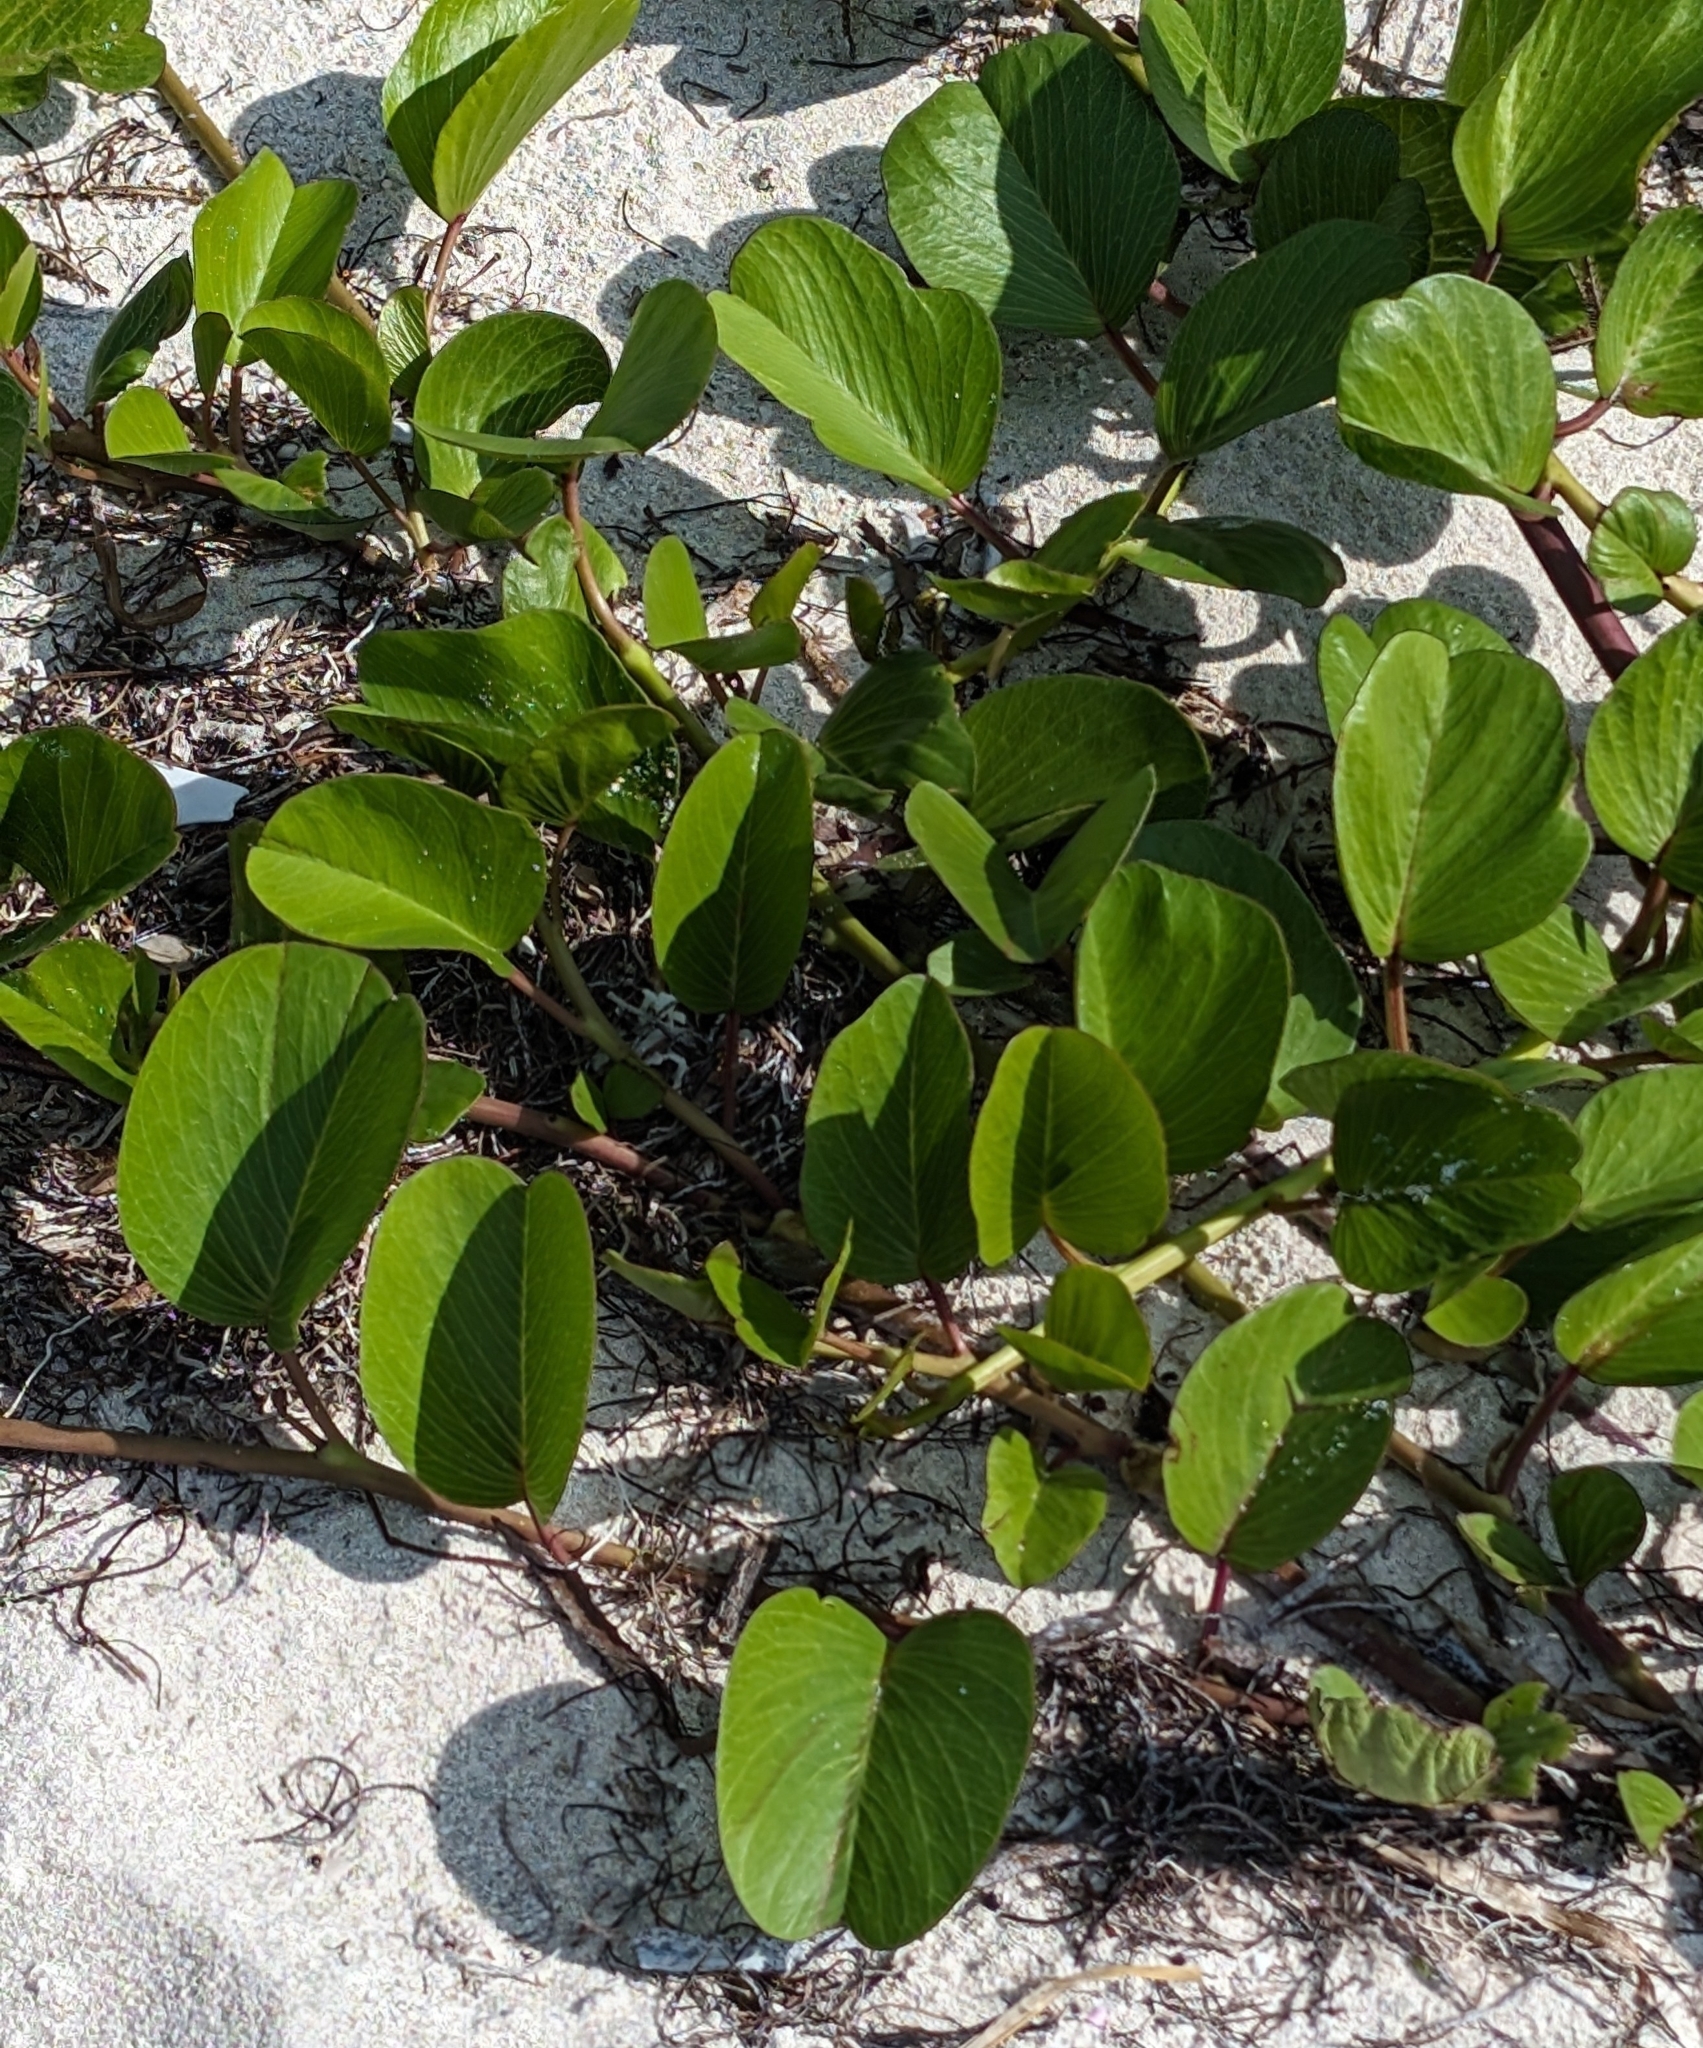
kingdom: Plantae
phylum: Tracheophyta
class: Magnoliopsida
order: Solanales
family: Convolvulaceae
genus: Ipomoea
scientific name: Ipomoea pes-caprae
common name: Beach morning glory
